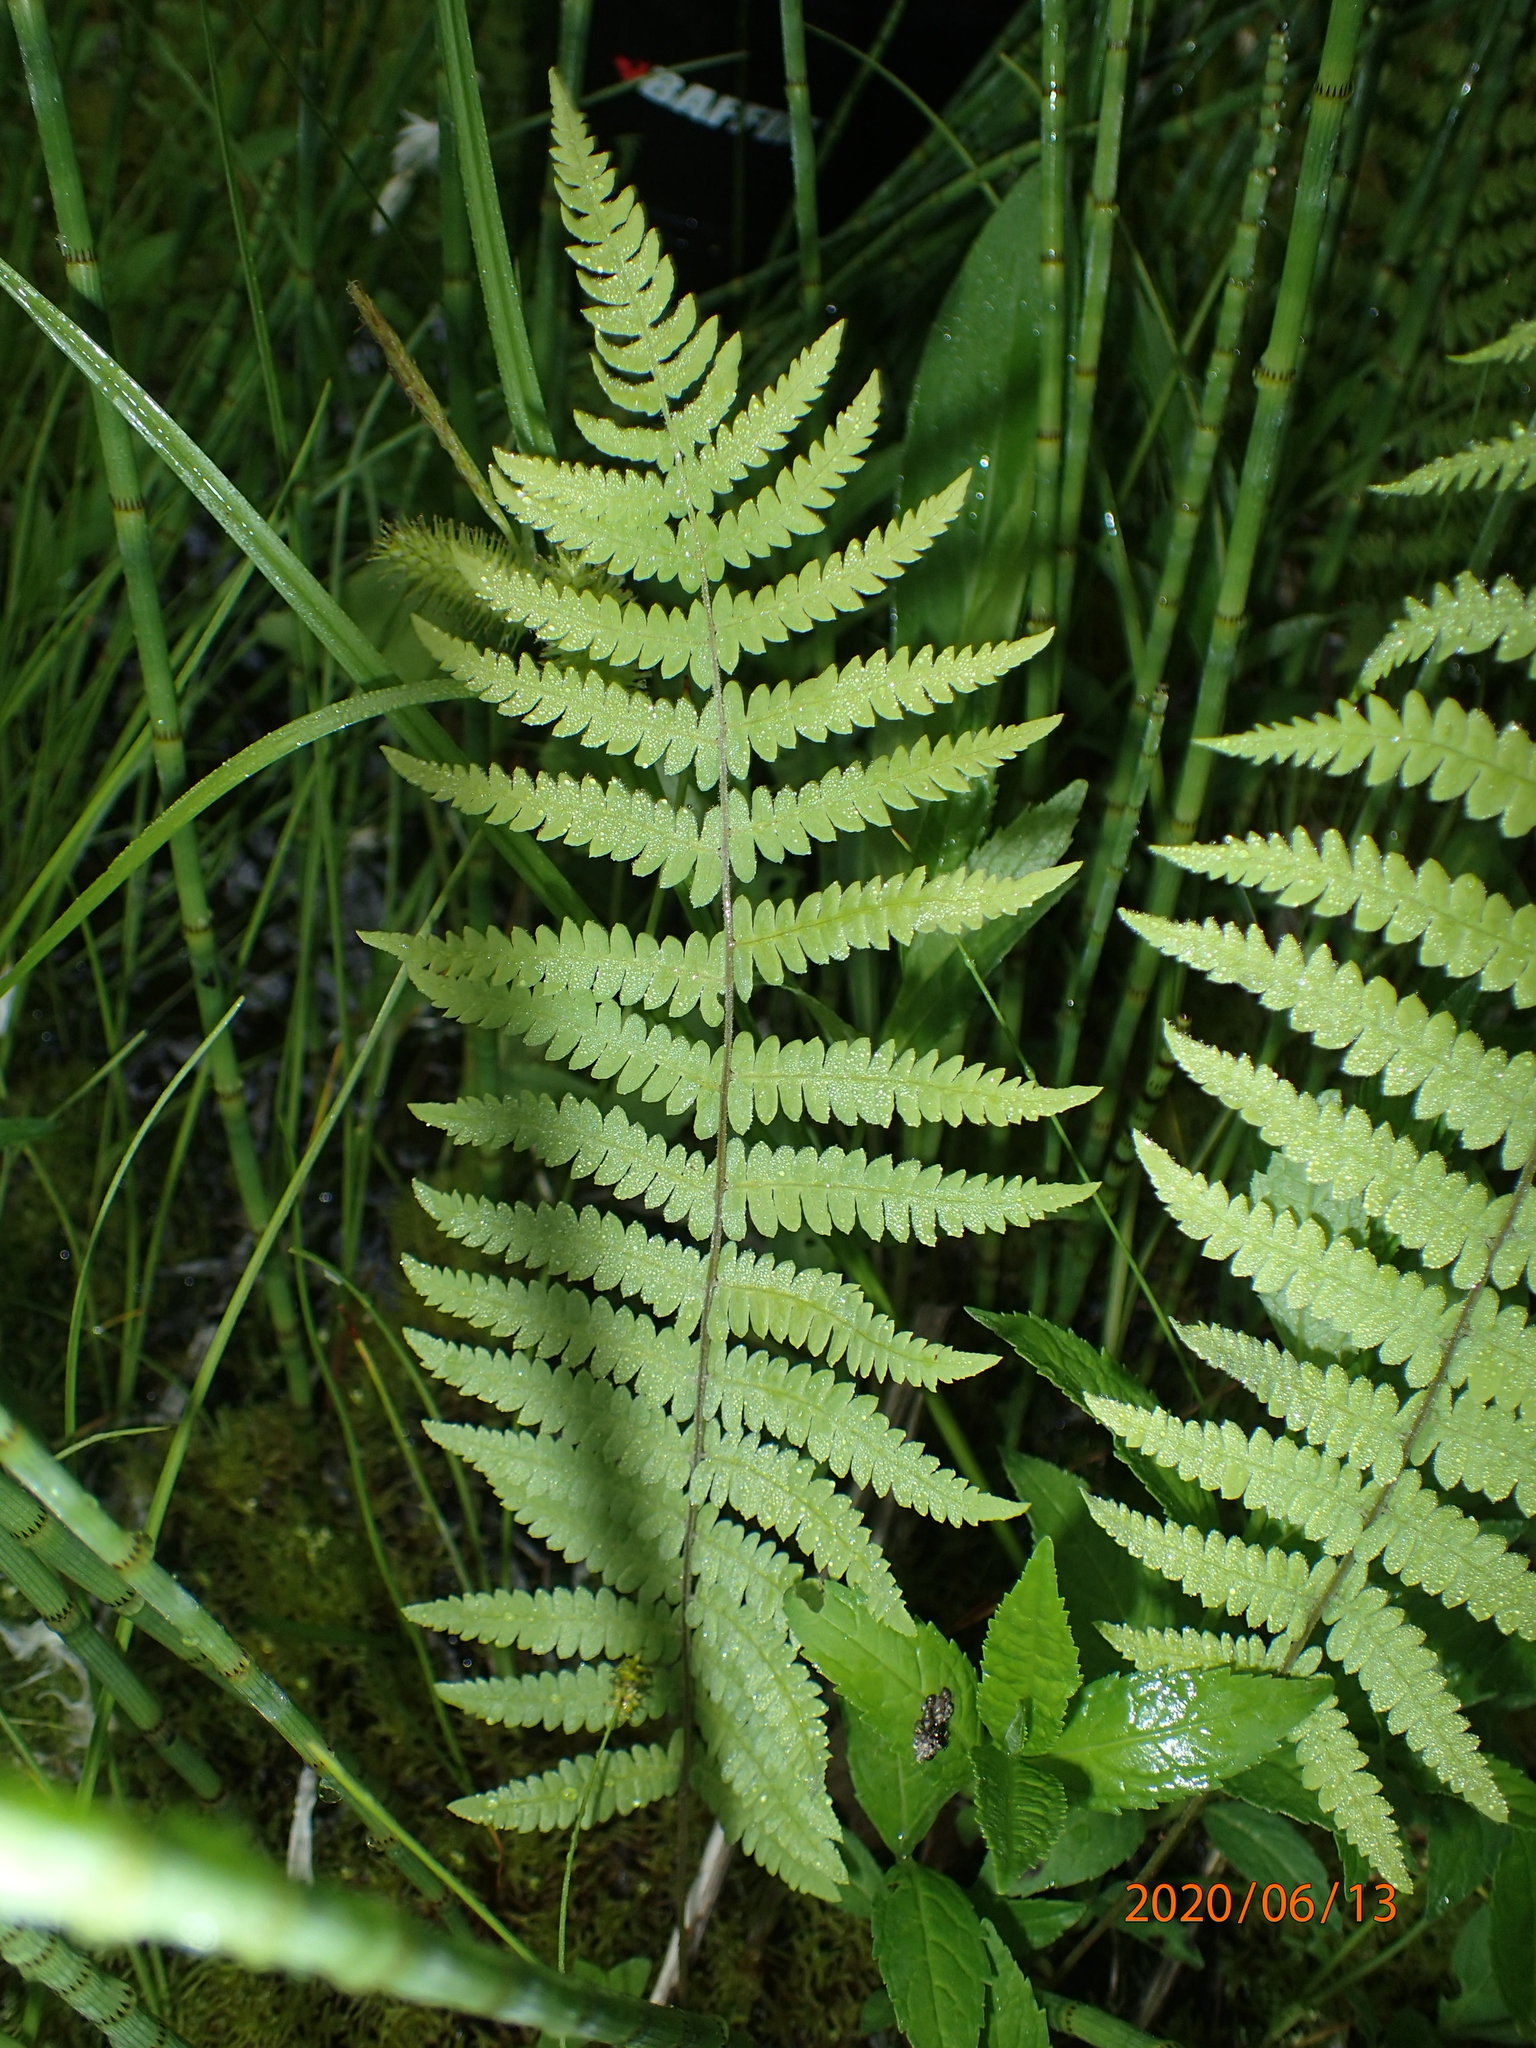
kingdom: Plantae
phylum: Tracheophyta
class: Polypodiopsida
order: Polypodiales
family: Thelypteridaceae
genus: Thelypteris
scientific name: Thelypteris palustris
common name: Marsh fern
